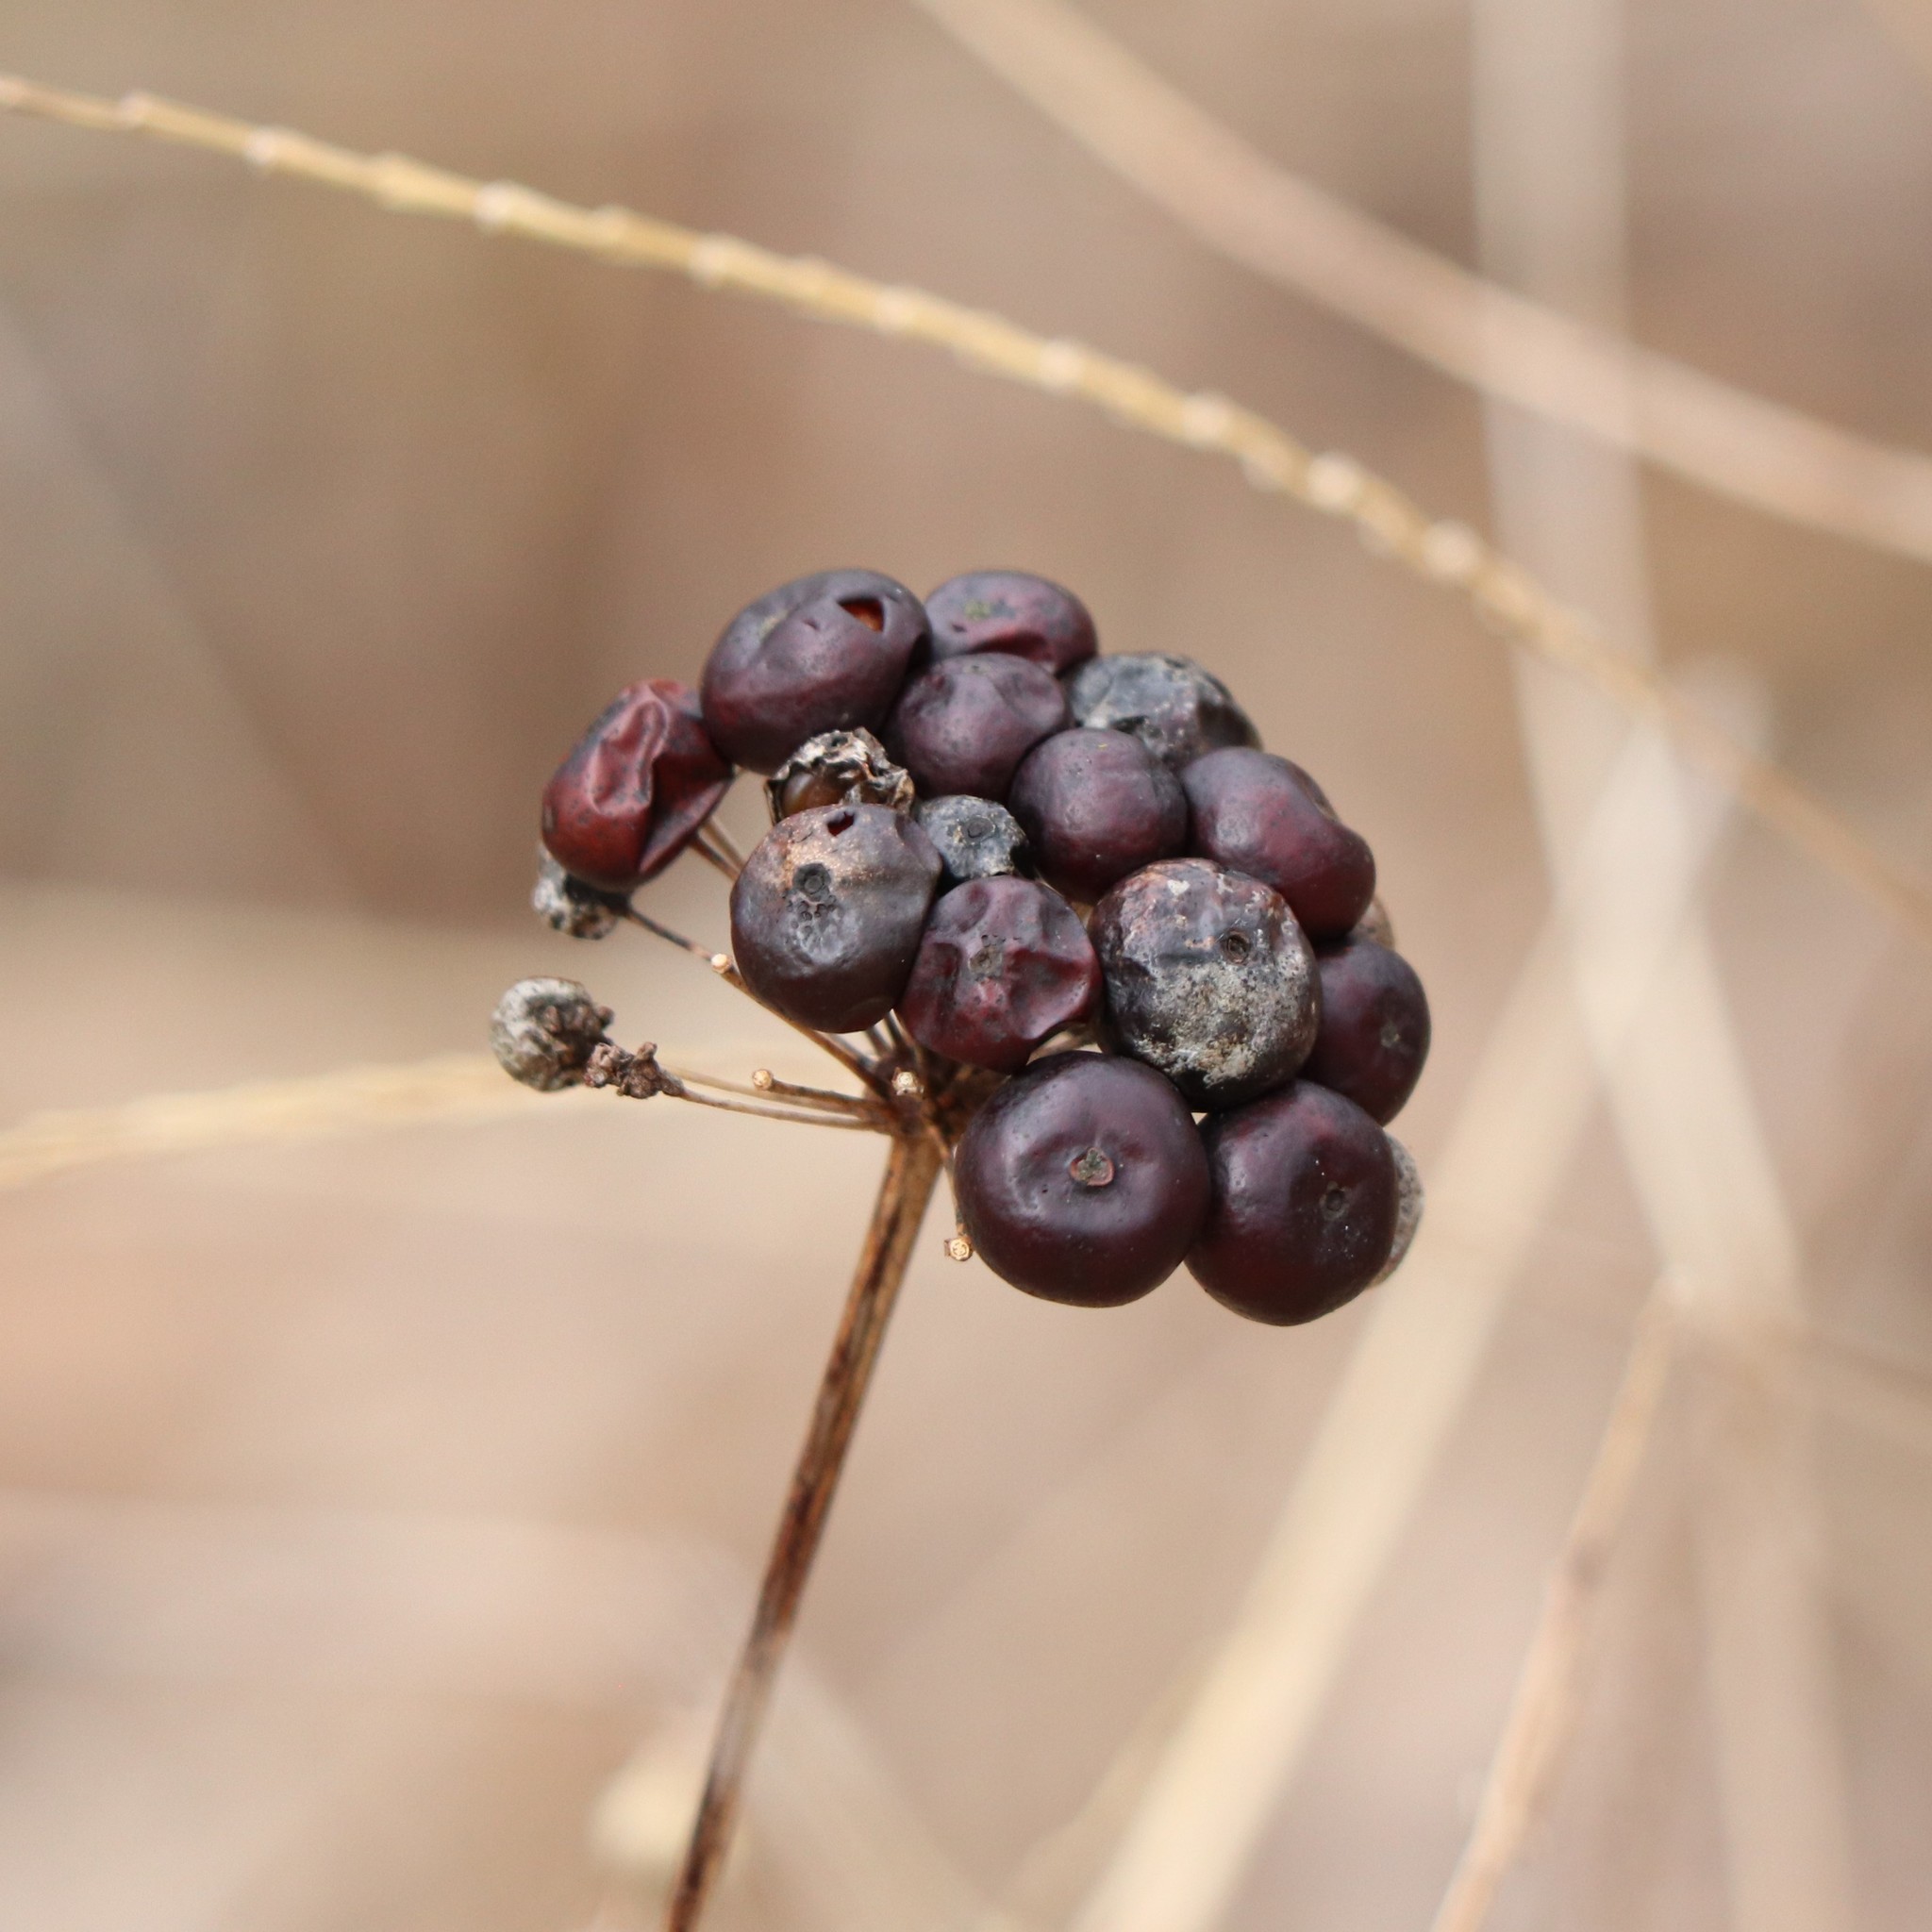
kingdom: Plantae
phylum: Tracheophyta
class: Liliopsida
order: Liliales
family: Smilacaceae
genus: Smilax
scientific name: Smilax herbacea
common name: Jacob's-ladder
